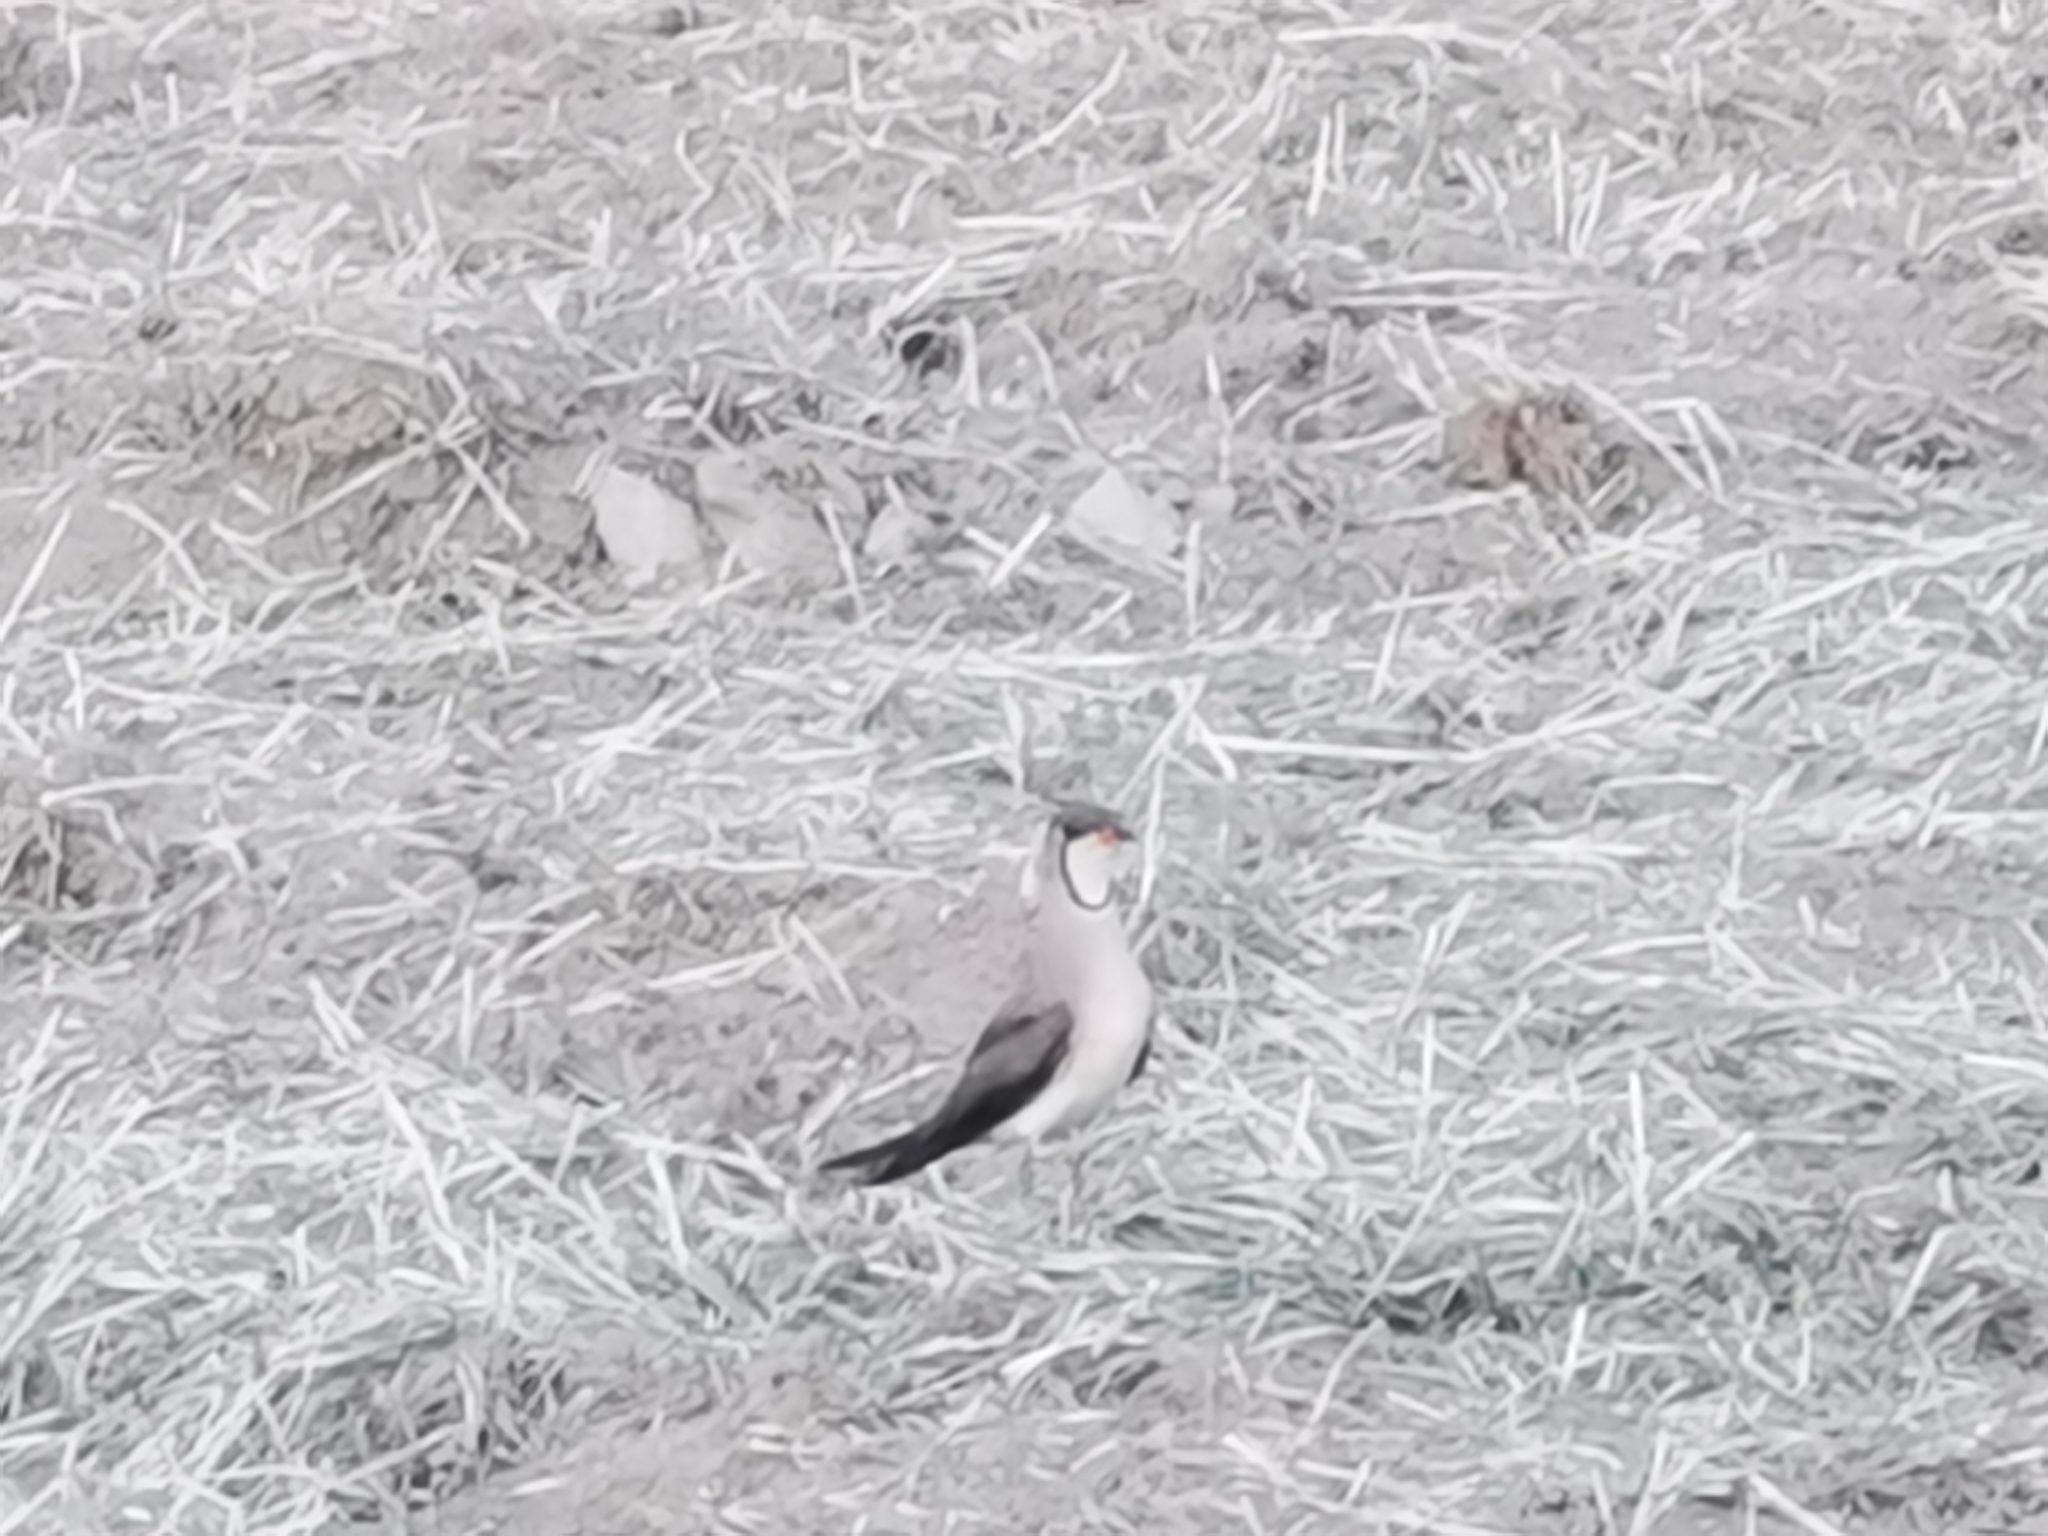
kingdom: Animalia
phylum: Chordata
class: Aves
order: Charadriiformes
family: Glareolidae
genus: Glareola
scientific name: Glareola maldivarum
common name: Oriental pratincole
